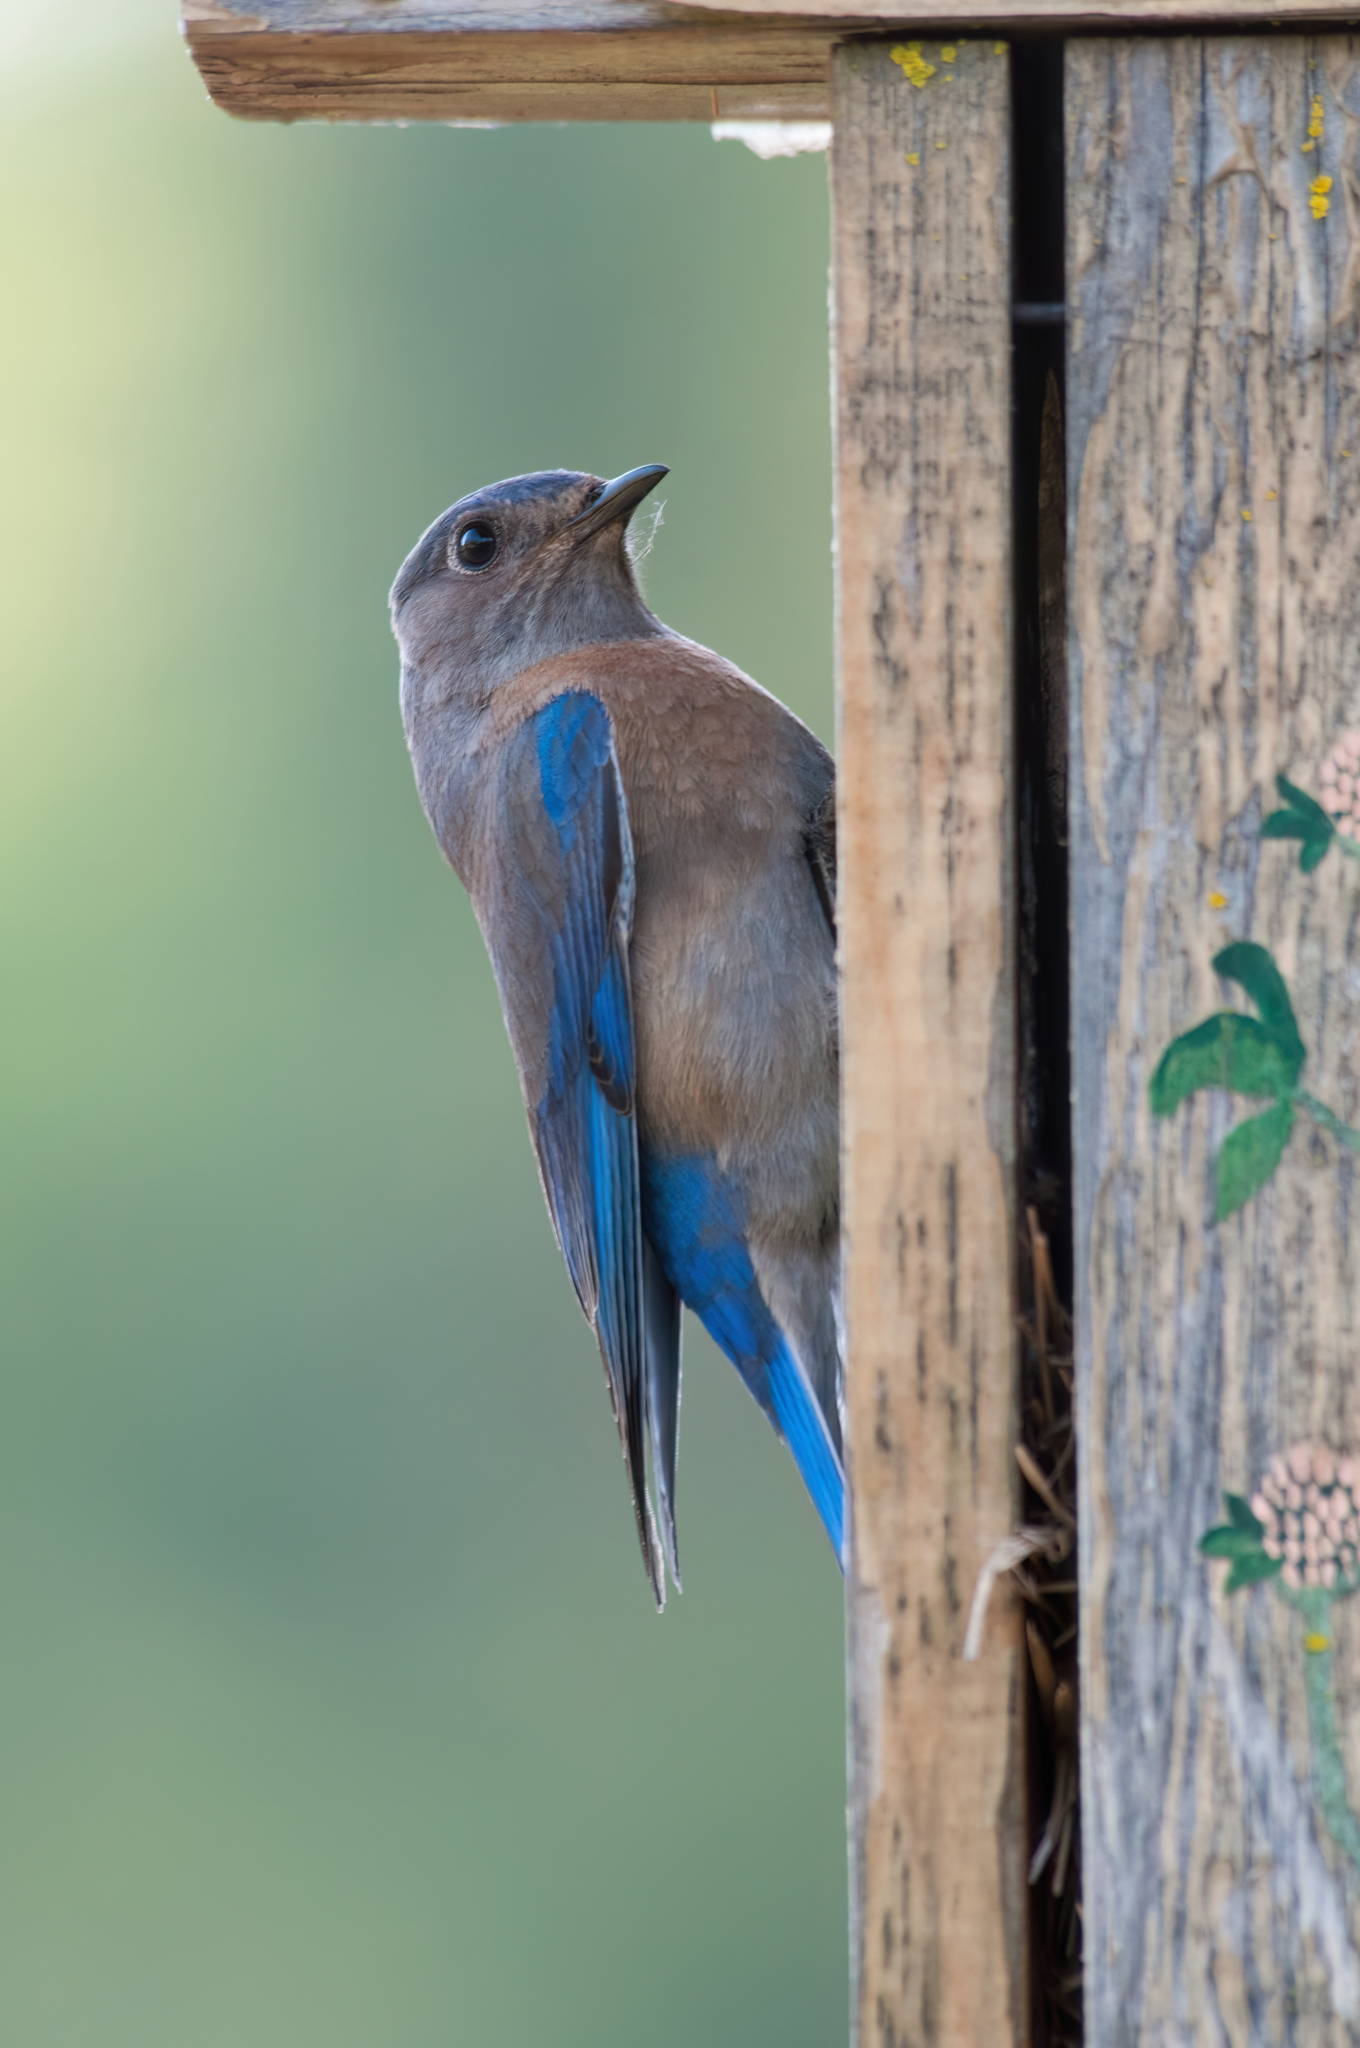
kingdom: Animalia
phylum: Chordata
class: Aves
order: Passeriformes
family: Turdidae
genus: Sialia
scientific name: Sialia mexicana
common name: Western bluebird
